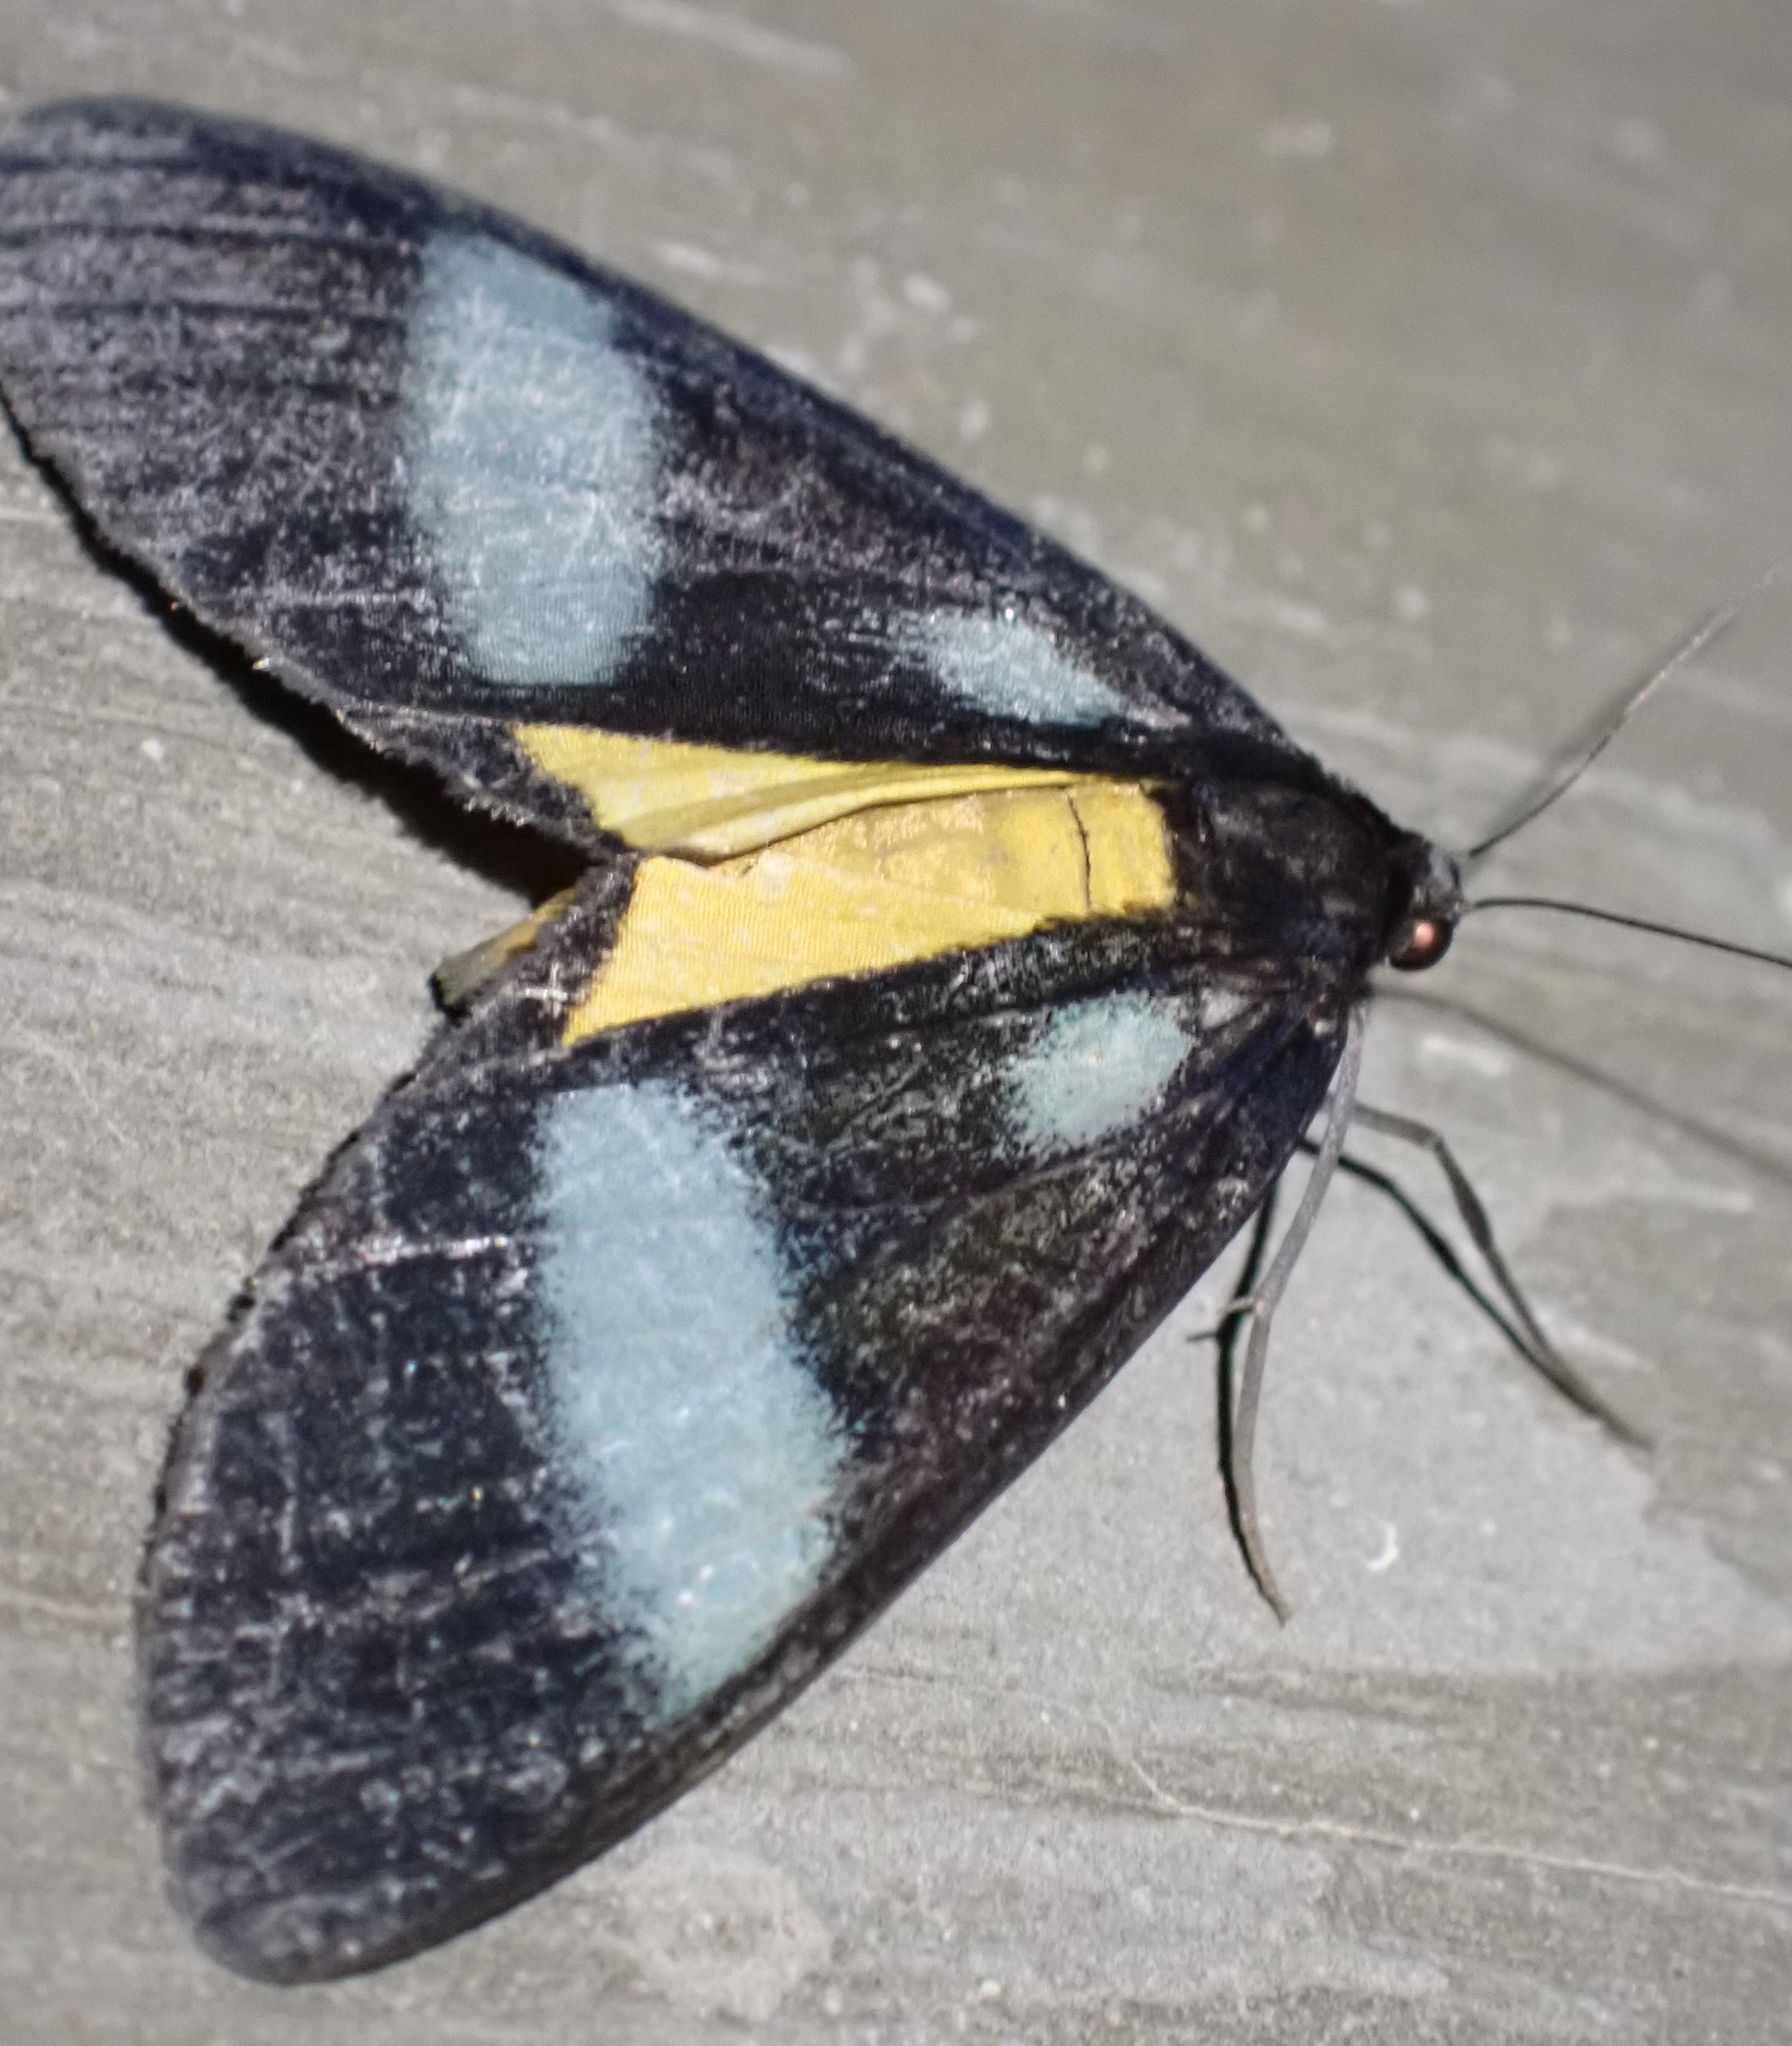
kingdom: Animalia
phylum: Arthropoda
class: Insecta
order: Lepidoptera
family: Geometridae
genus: Lobocraspeda
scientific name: Lobocraspeda latefascia
